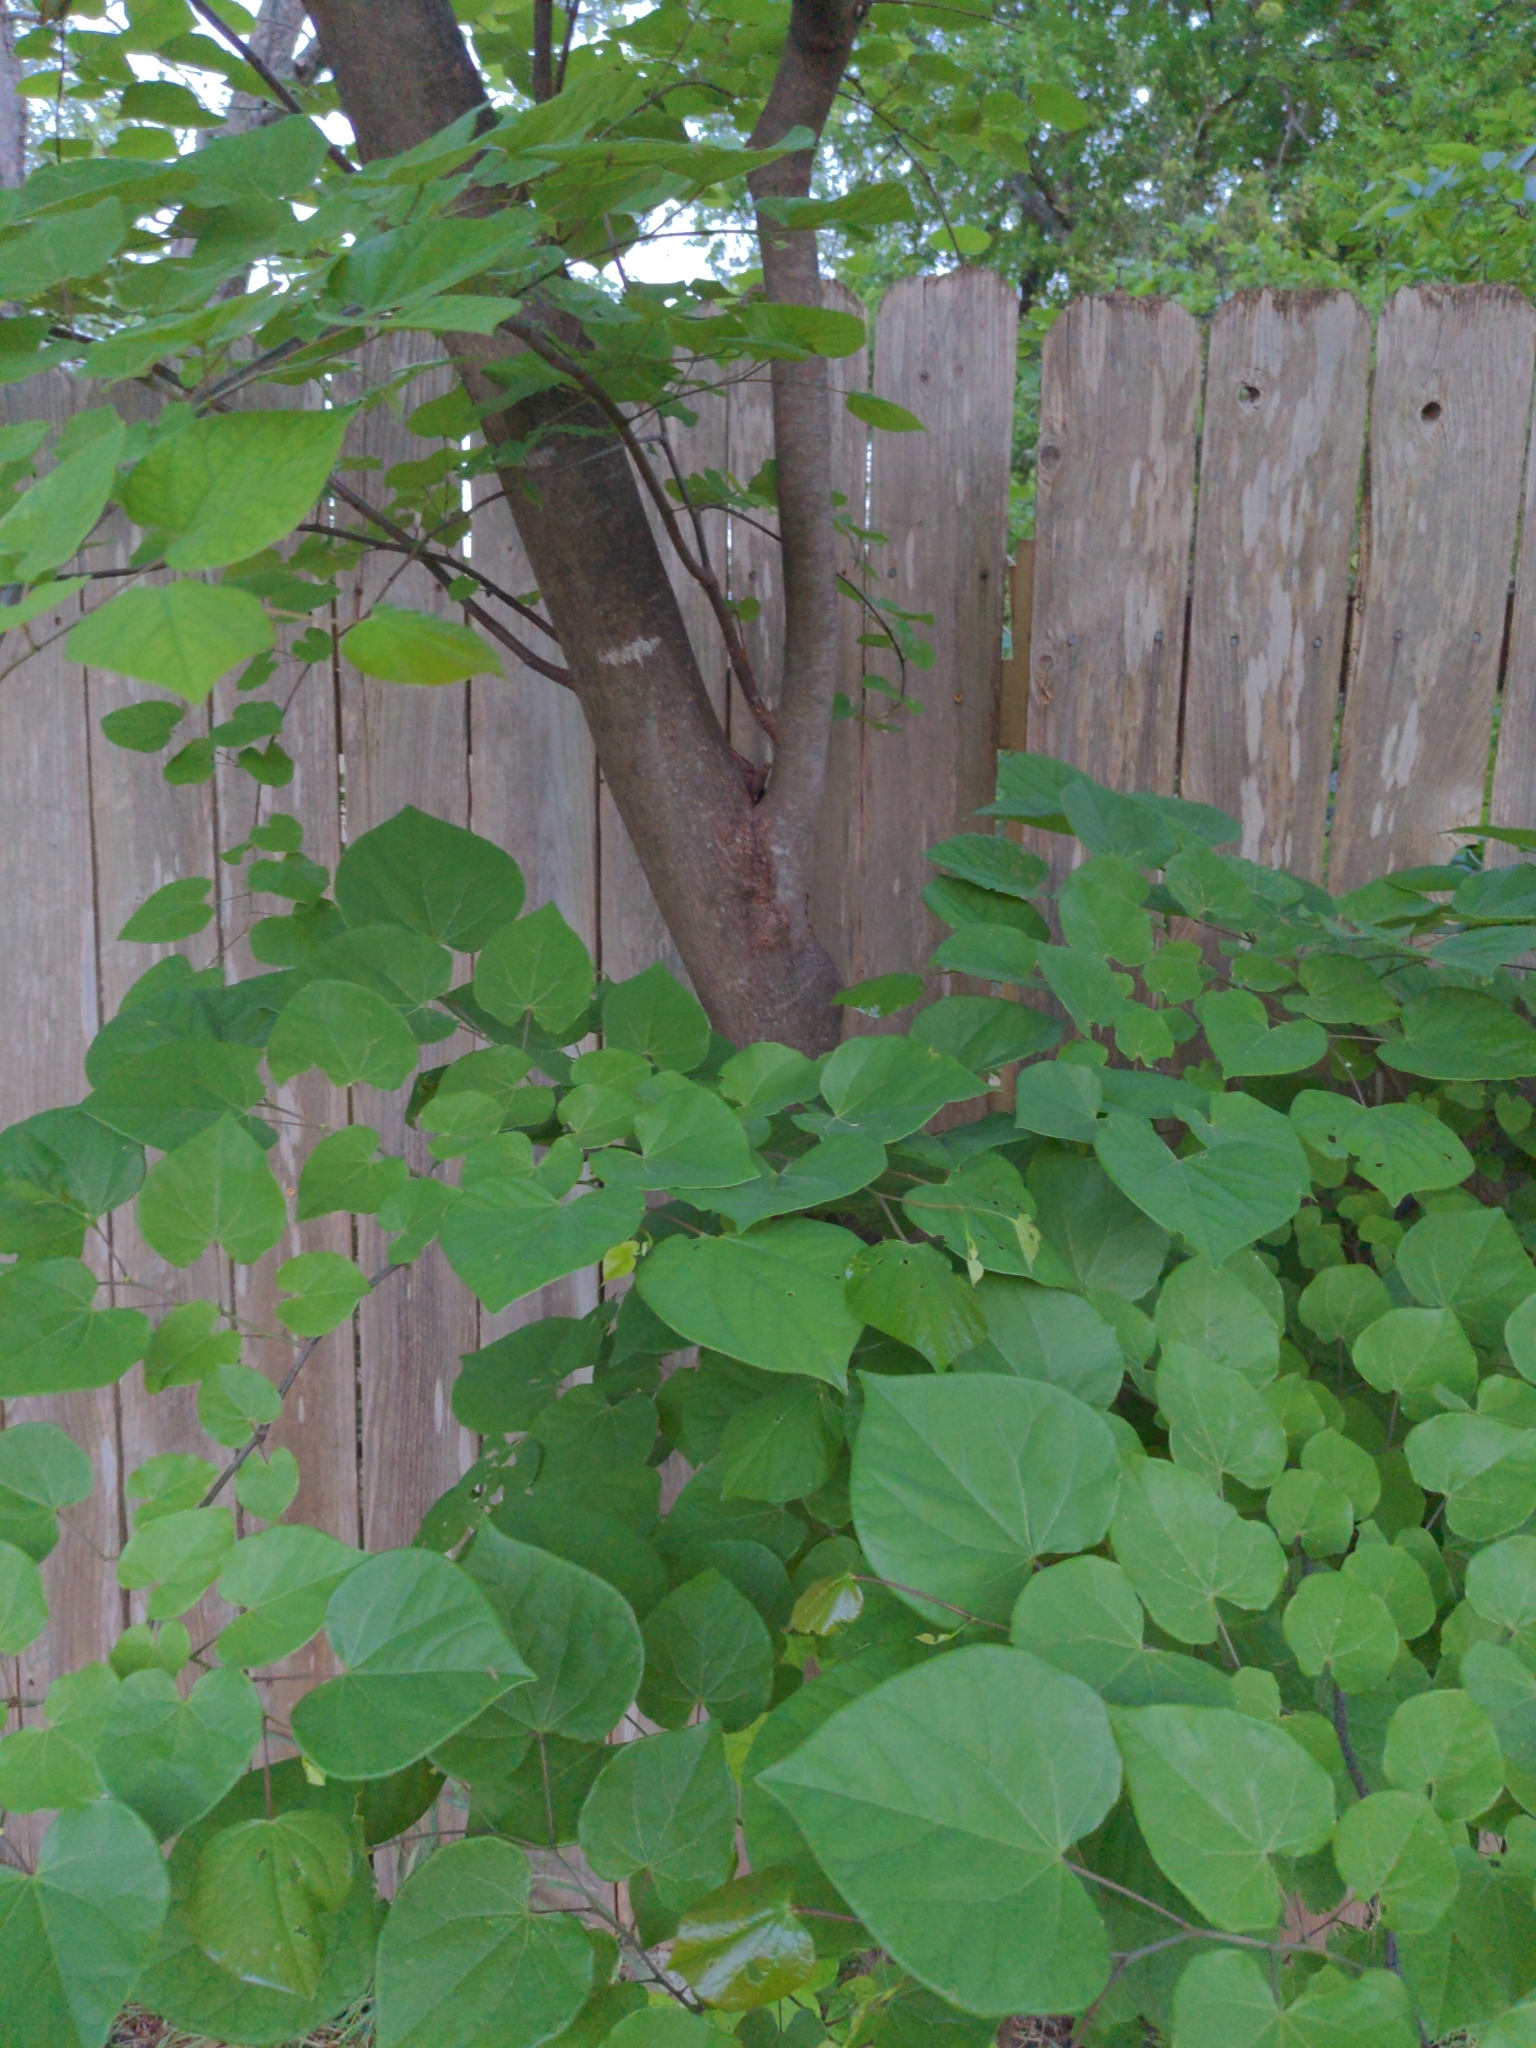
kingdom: Plantae
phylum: Tracheophyta
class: Magnoliopsida
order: Fabales
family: Fabaceae
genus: Cercis
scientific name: Cercis canadensis
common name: Eastern redbud
